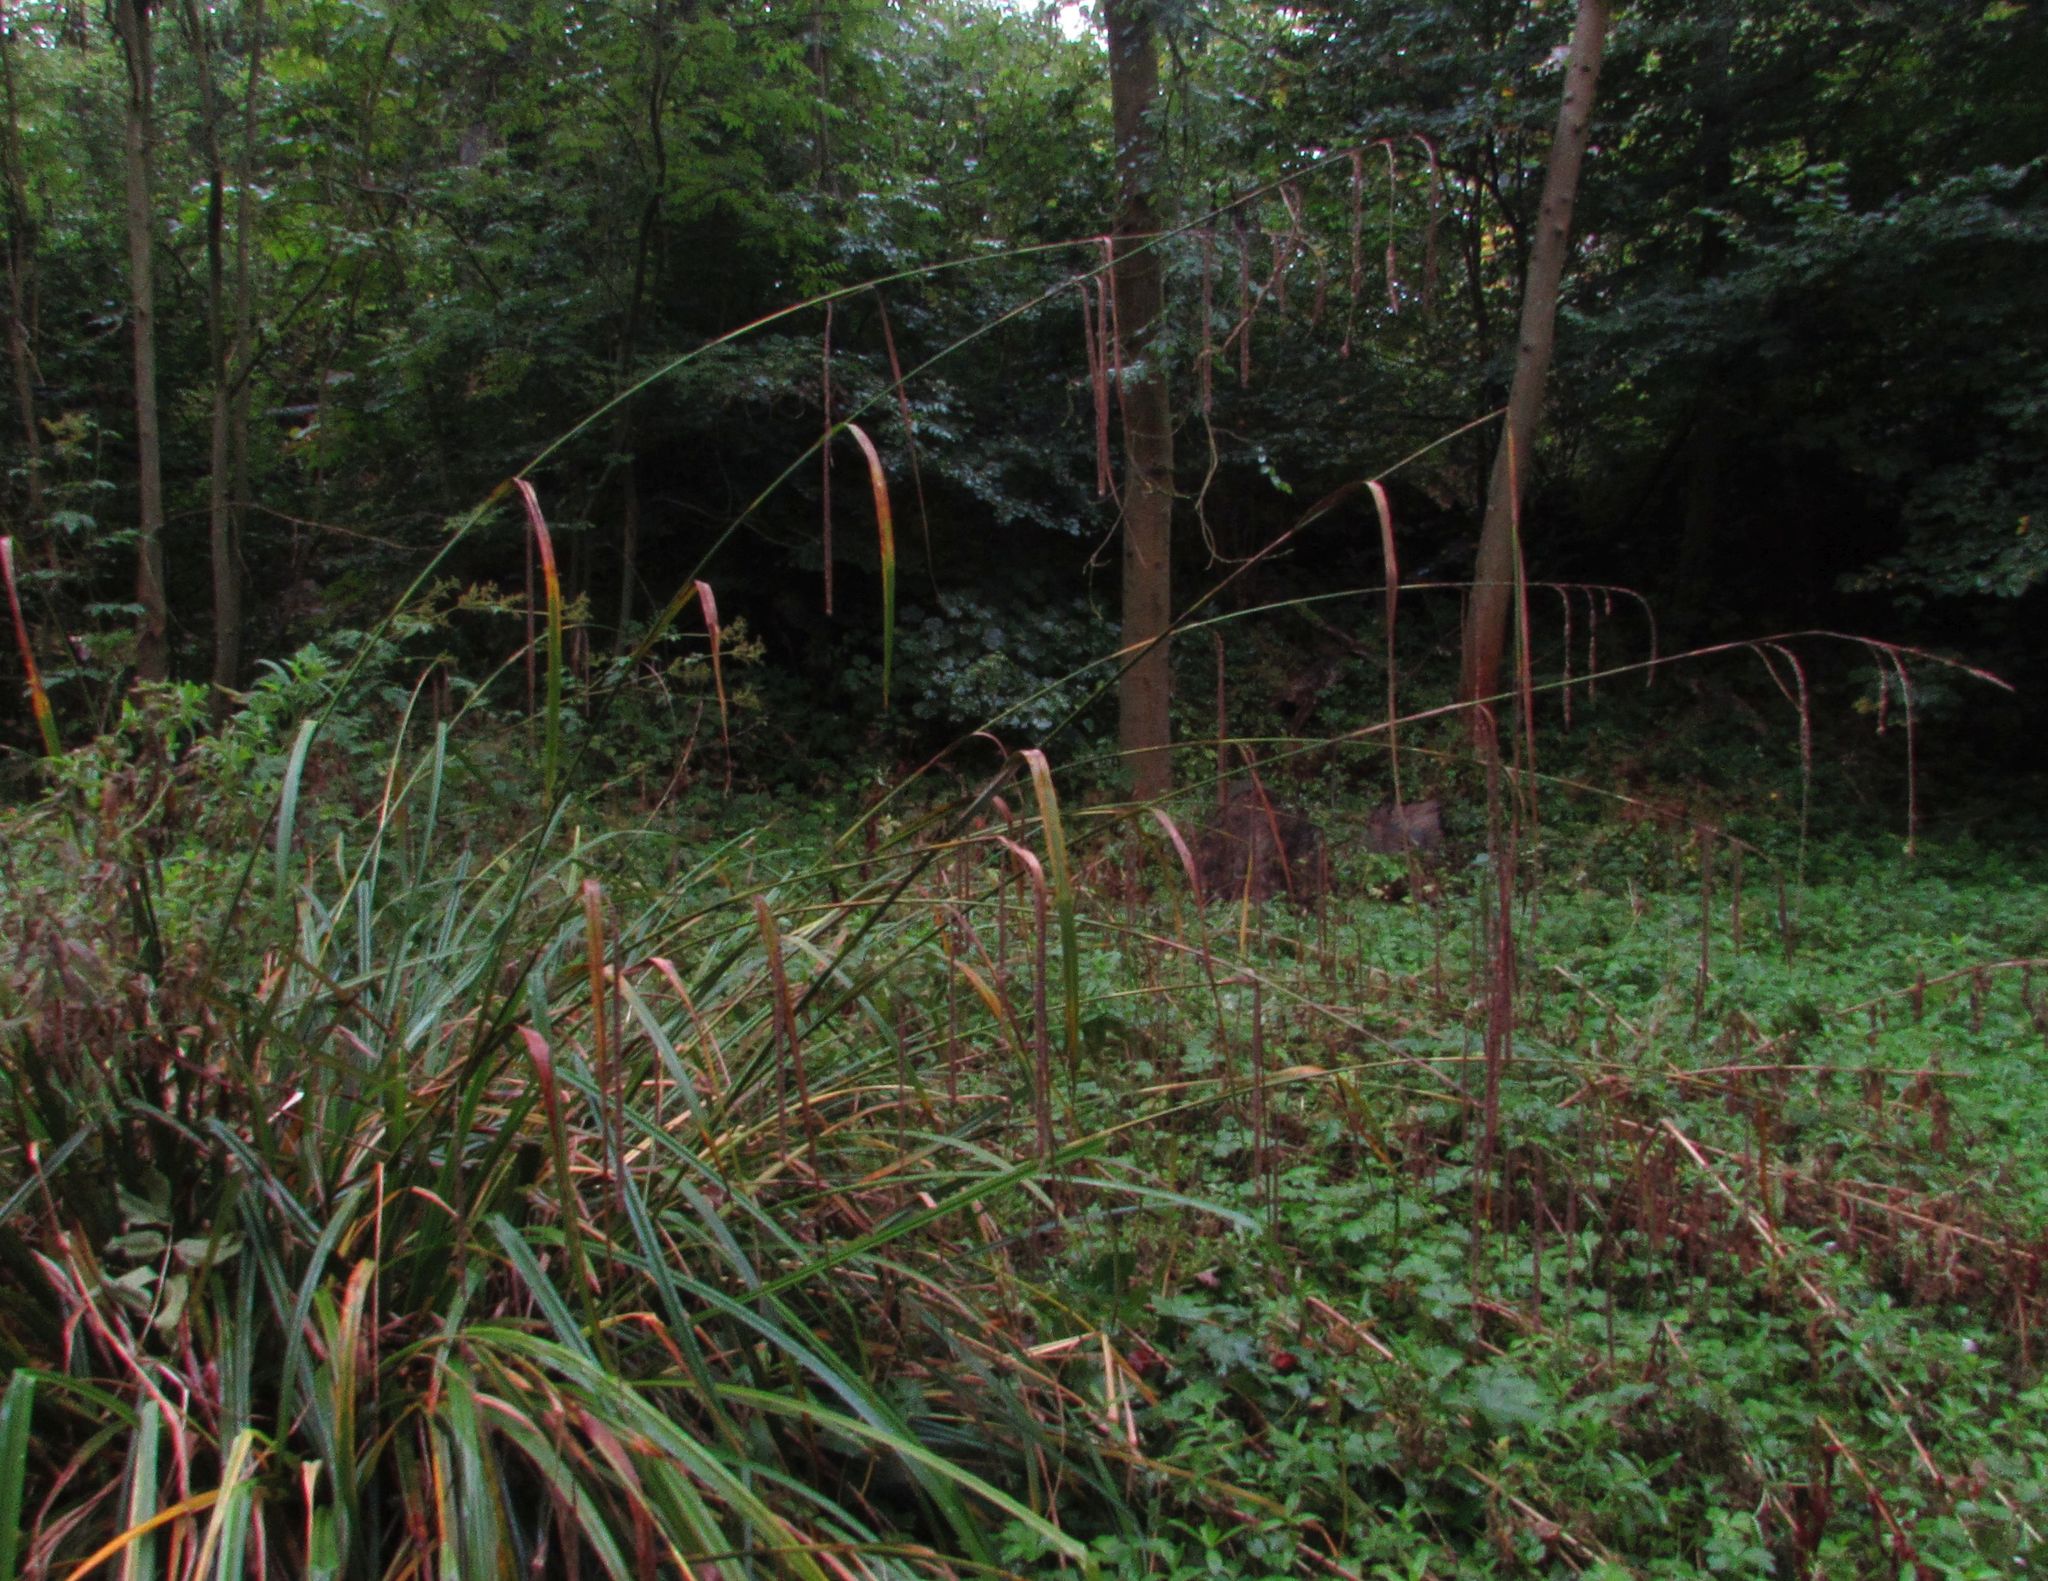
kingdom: Plantae
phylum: Tracheophyta
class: Liliopsida
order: Poales
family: Cyperaceae
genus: Carex
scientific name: Carex pendula
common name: Pendulous sedge
